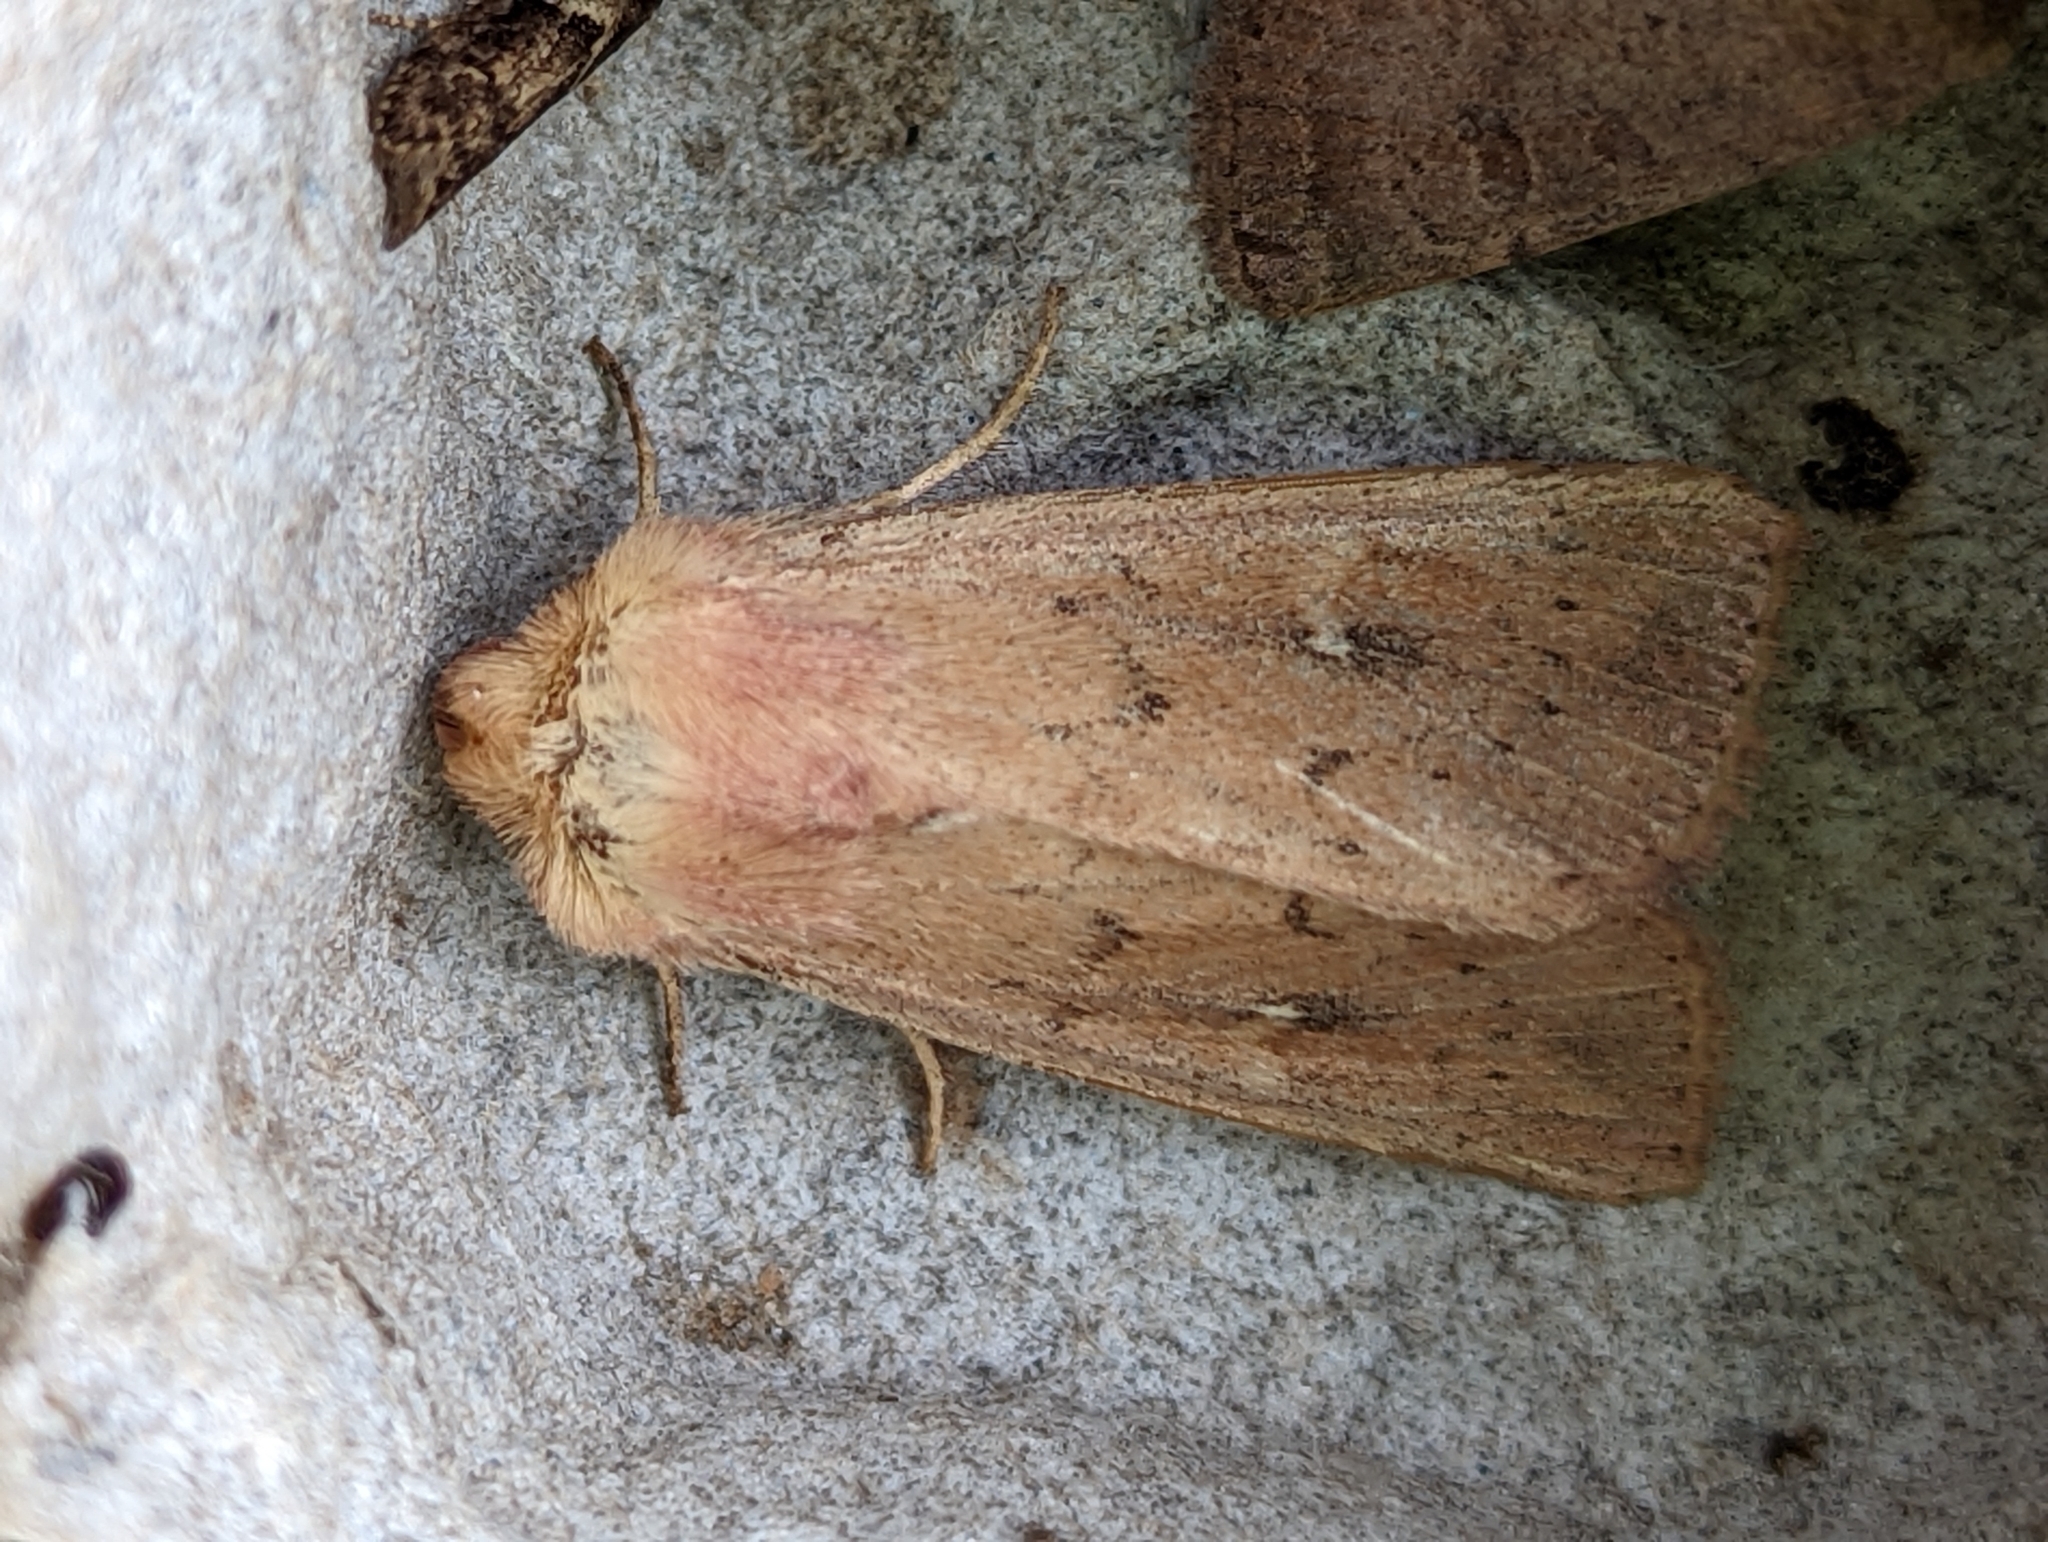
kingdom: Animalia
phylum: Arthropoda
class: Insecta
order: Lepidoptera
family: Noctuidae
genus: Mythimna
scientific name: Mythimna ferrago
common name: Clay
